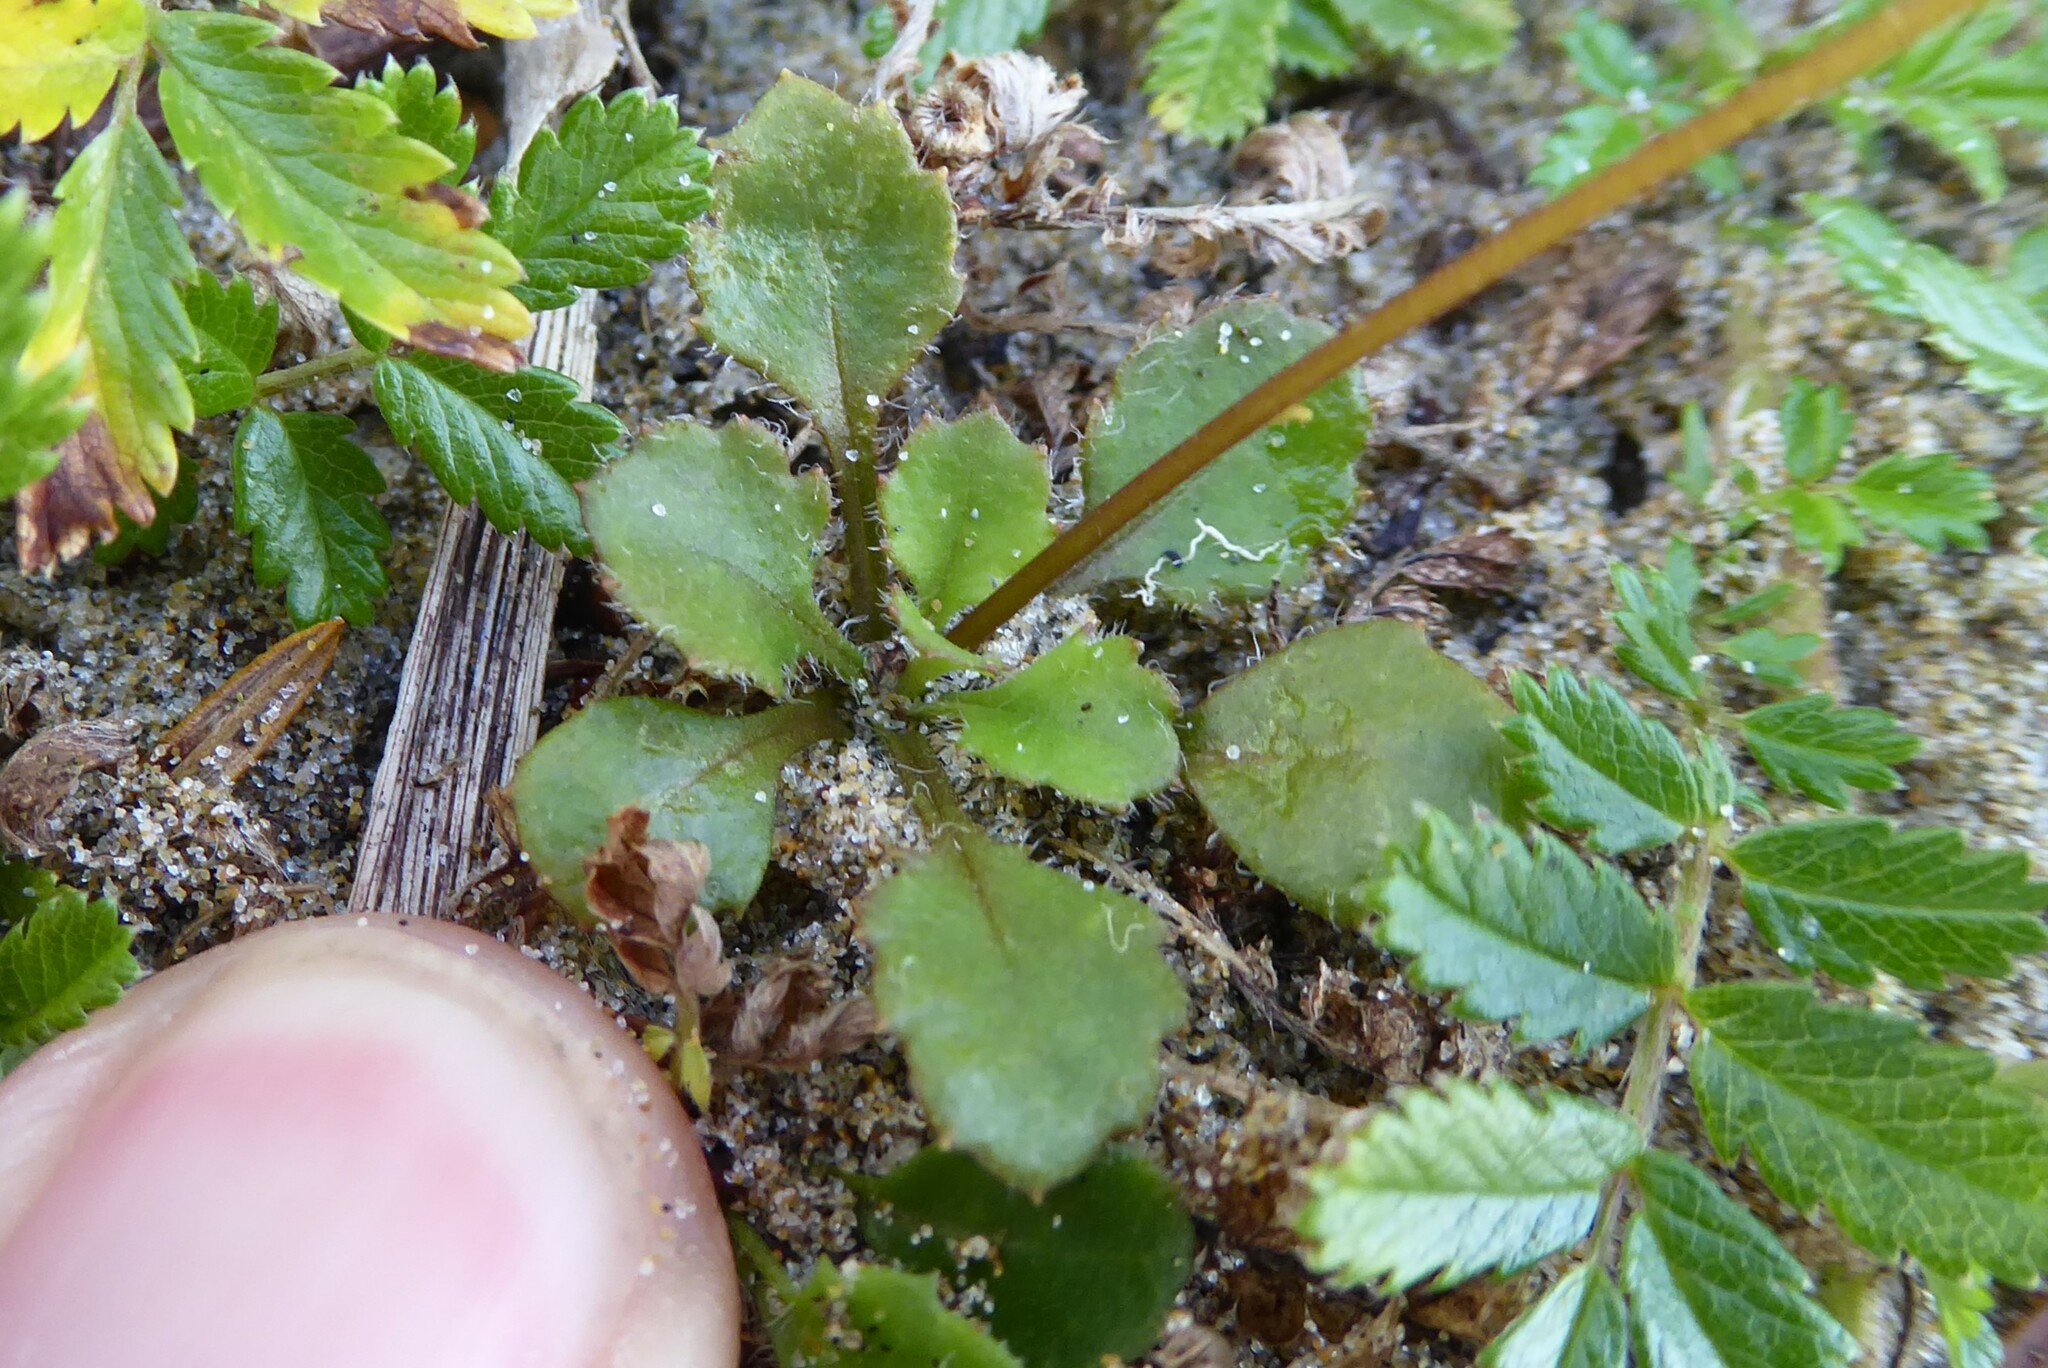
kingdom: Plantae
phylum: Tracheophyta
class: Magnoliopsida
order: Asterales
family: Asteraceae
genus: Lagenophora
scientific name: Lagenophora pumila
